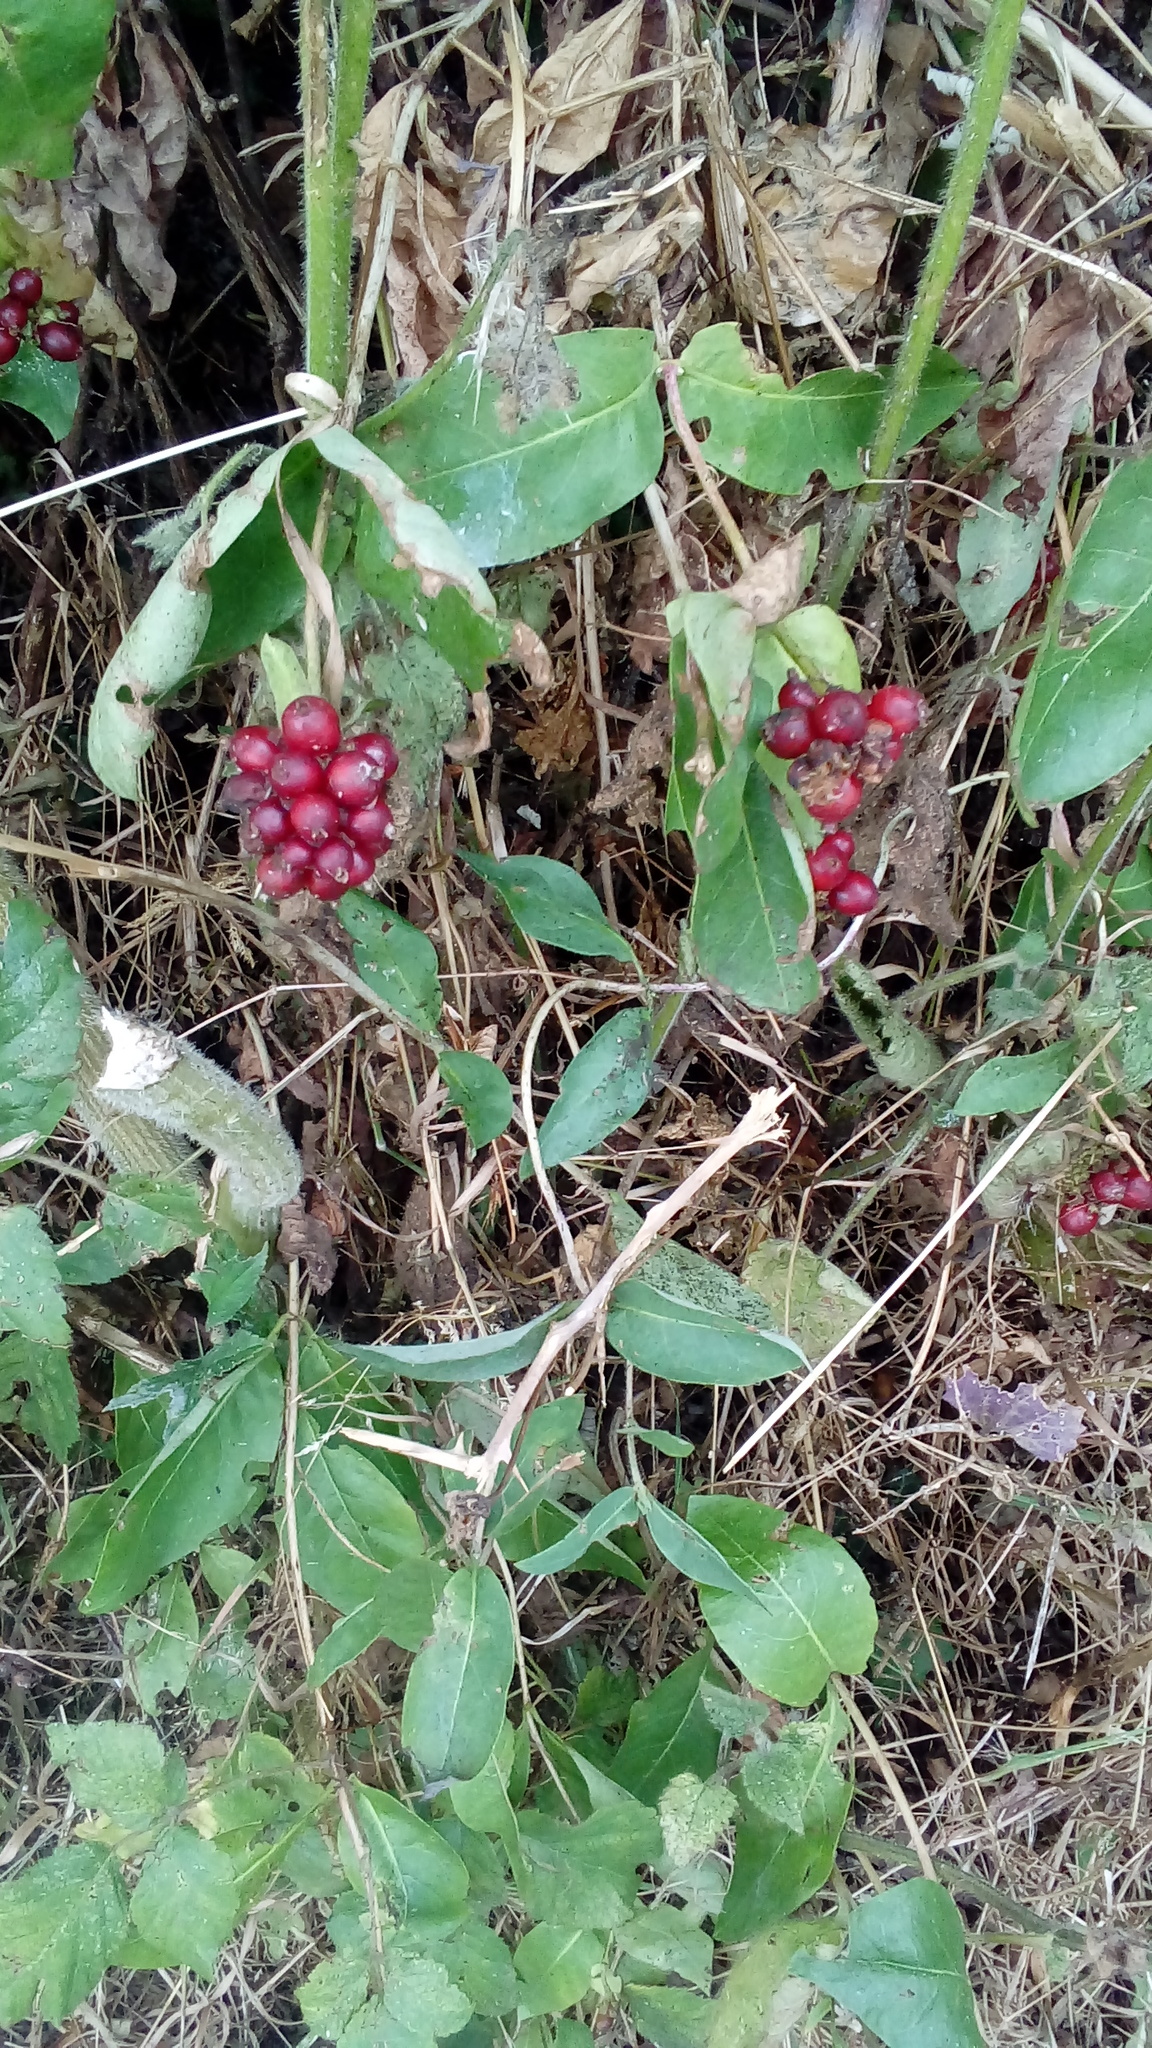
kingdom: Plantae
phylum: Tracheophyta
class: Magnoliopsida
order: Dipsacales
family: Caprifoliaceae
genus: Lonicera
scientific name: Lonicera periclymenum
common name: European honeysuckle
